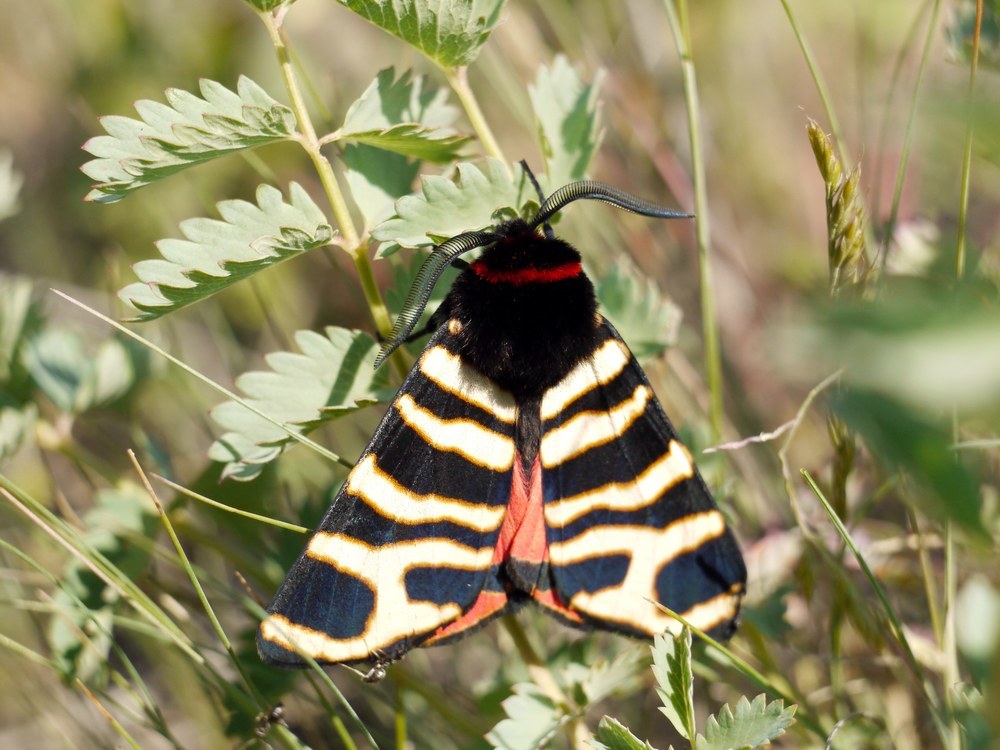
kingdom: Animalia
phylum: Arthropoda
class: Insecta
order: Lepidoptera
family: Erebidae
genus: Eucharia
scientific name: Eucharia festiva
